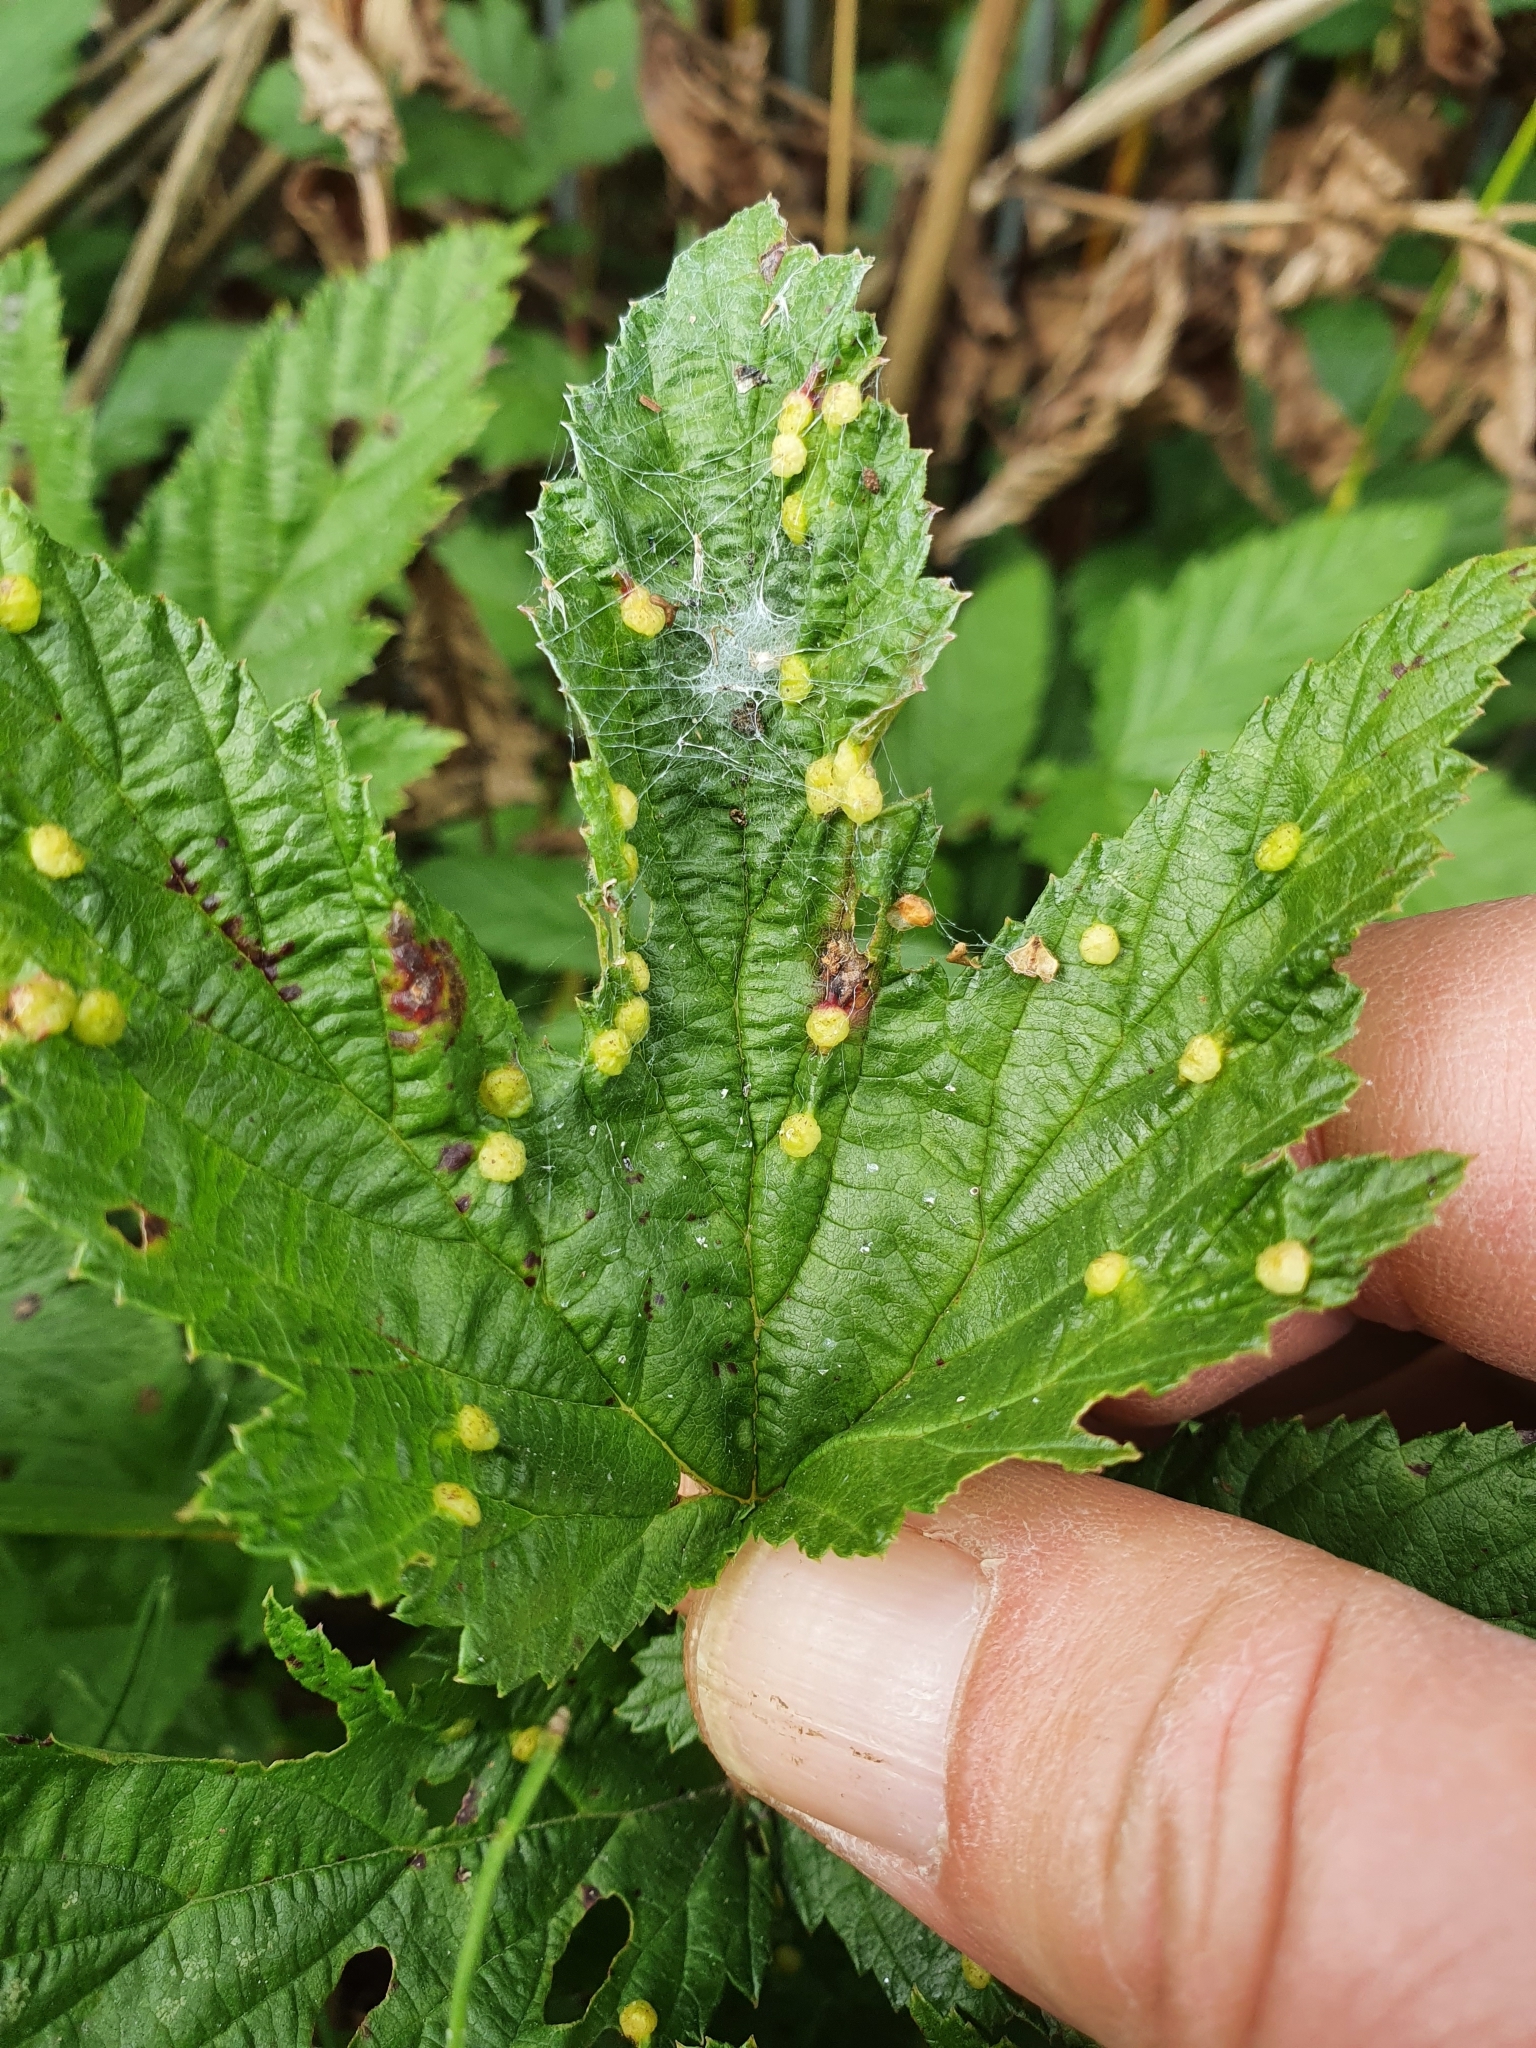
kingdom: Animalia
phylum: Arthropoda
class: Insecta
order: Diptera
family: Cecidomyiidae
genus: Dasineura
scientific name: Dasineura ulmaria
